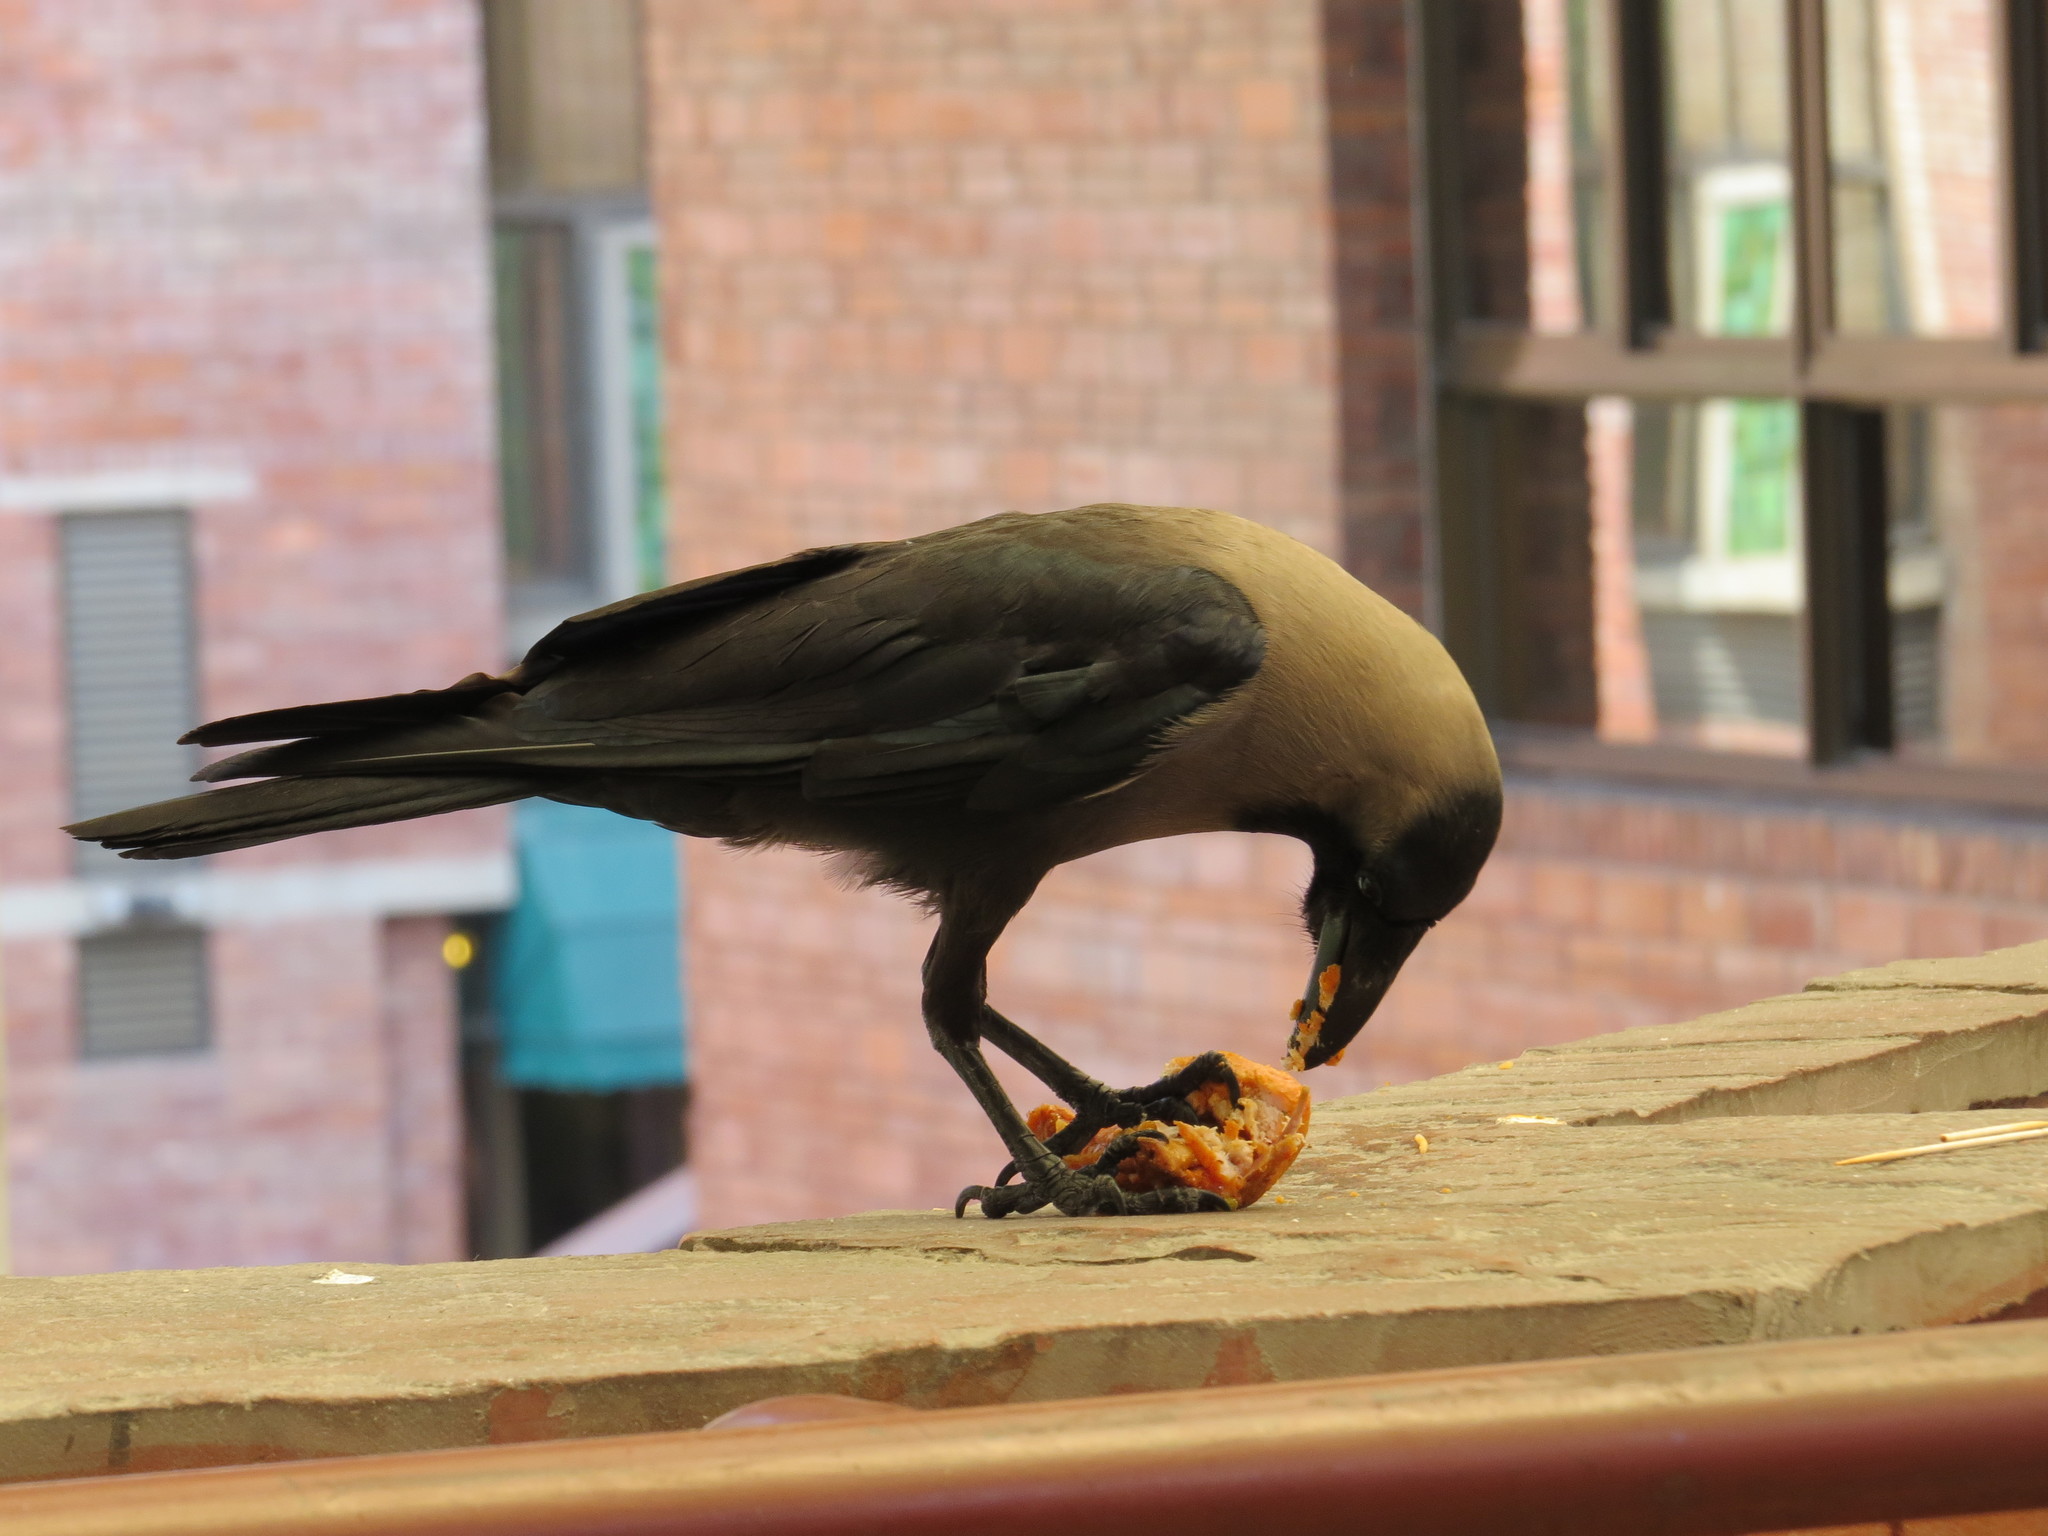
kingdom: Animalia
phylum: Chordata
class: Aves
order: Passeriformes
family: Corvidae
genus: Corvus
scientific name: Corvus splendens
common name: House crow
